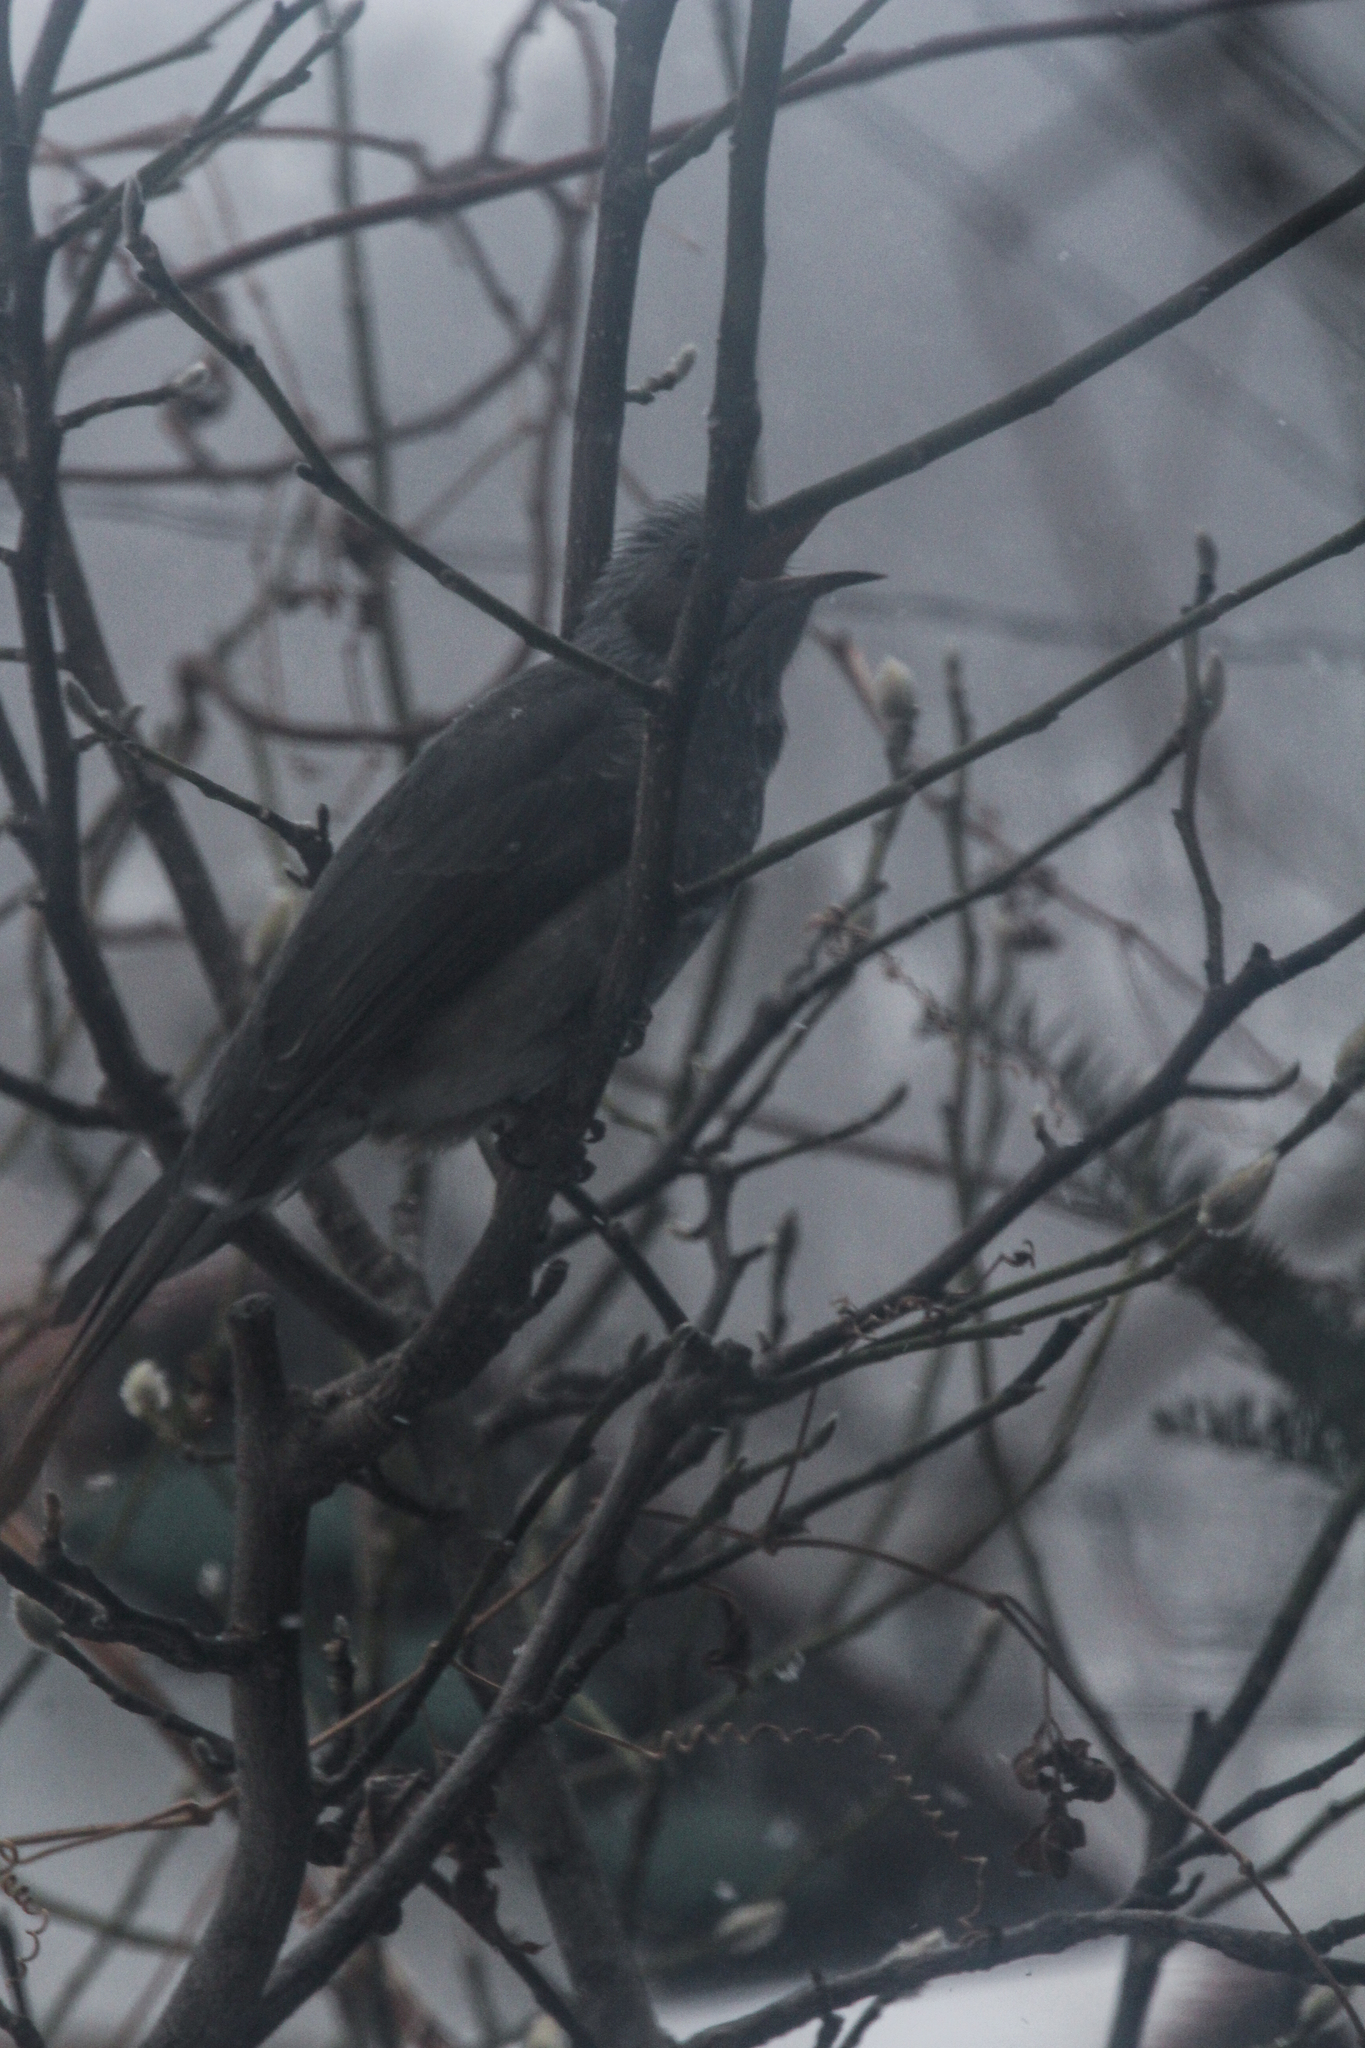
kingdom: Animalia
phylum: Chordata
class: Aves
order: Passeriformes
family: Pycnonotidae
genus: Hypsipetes
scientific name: Hypsipetes amaurotis
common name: Brown-eared bulbul
